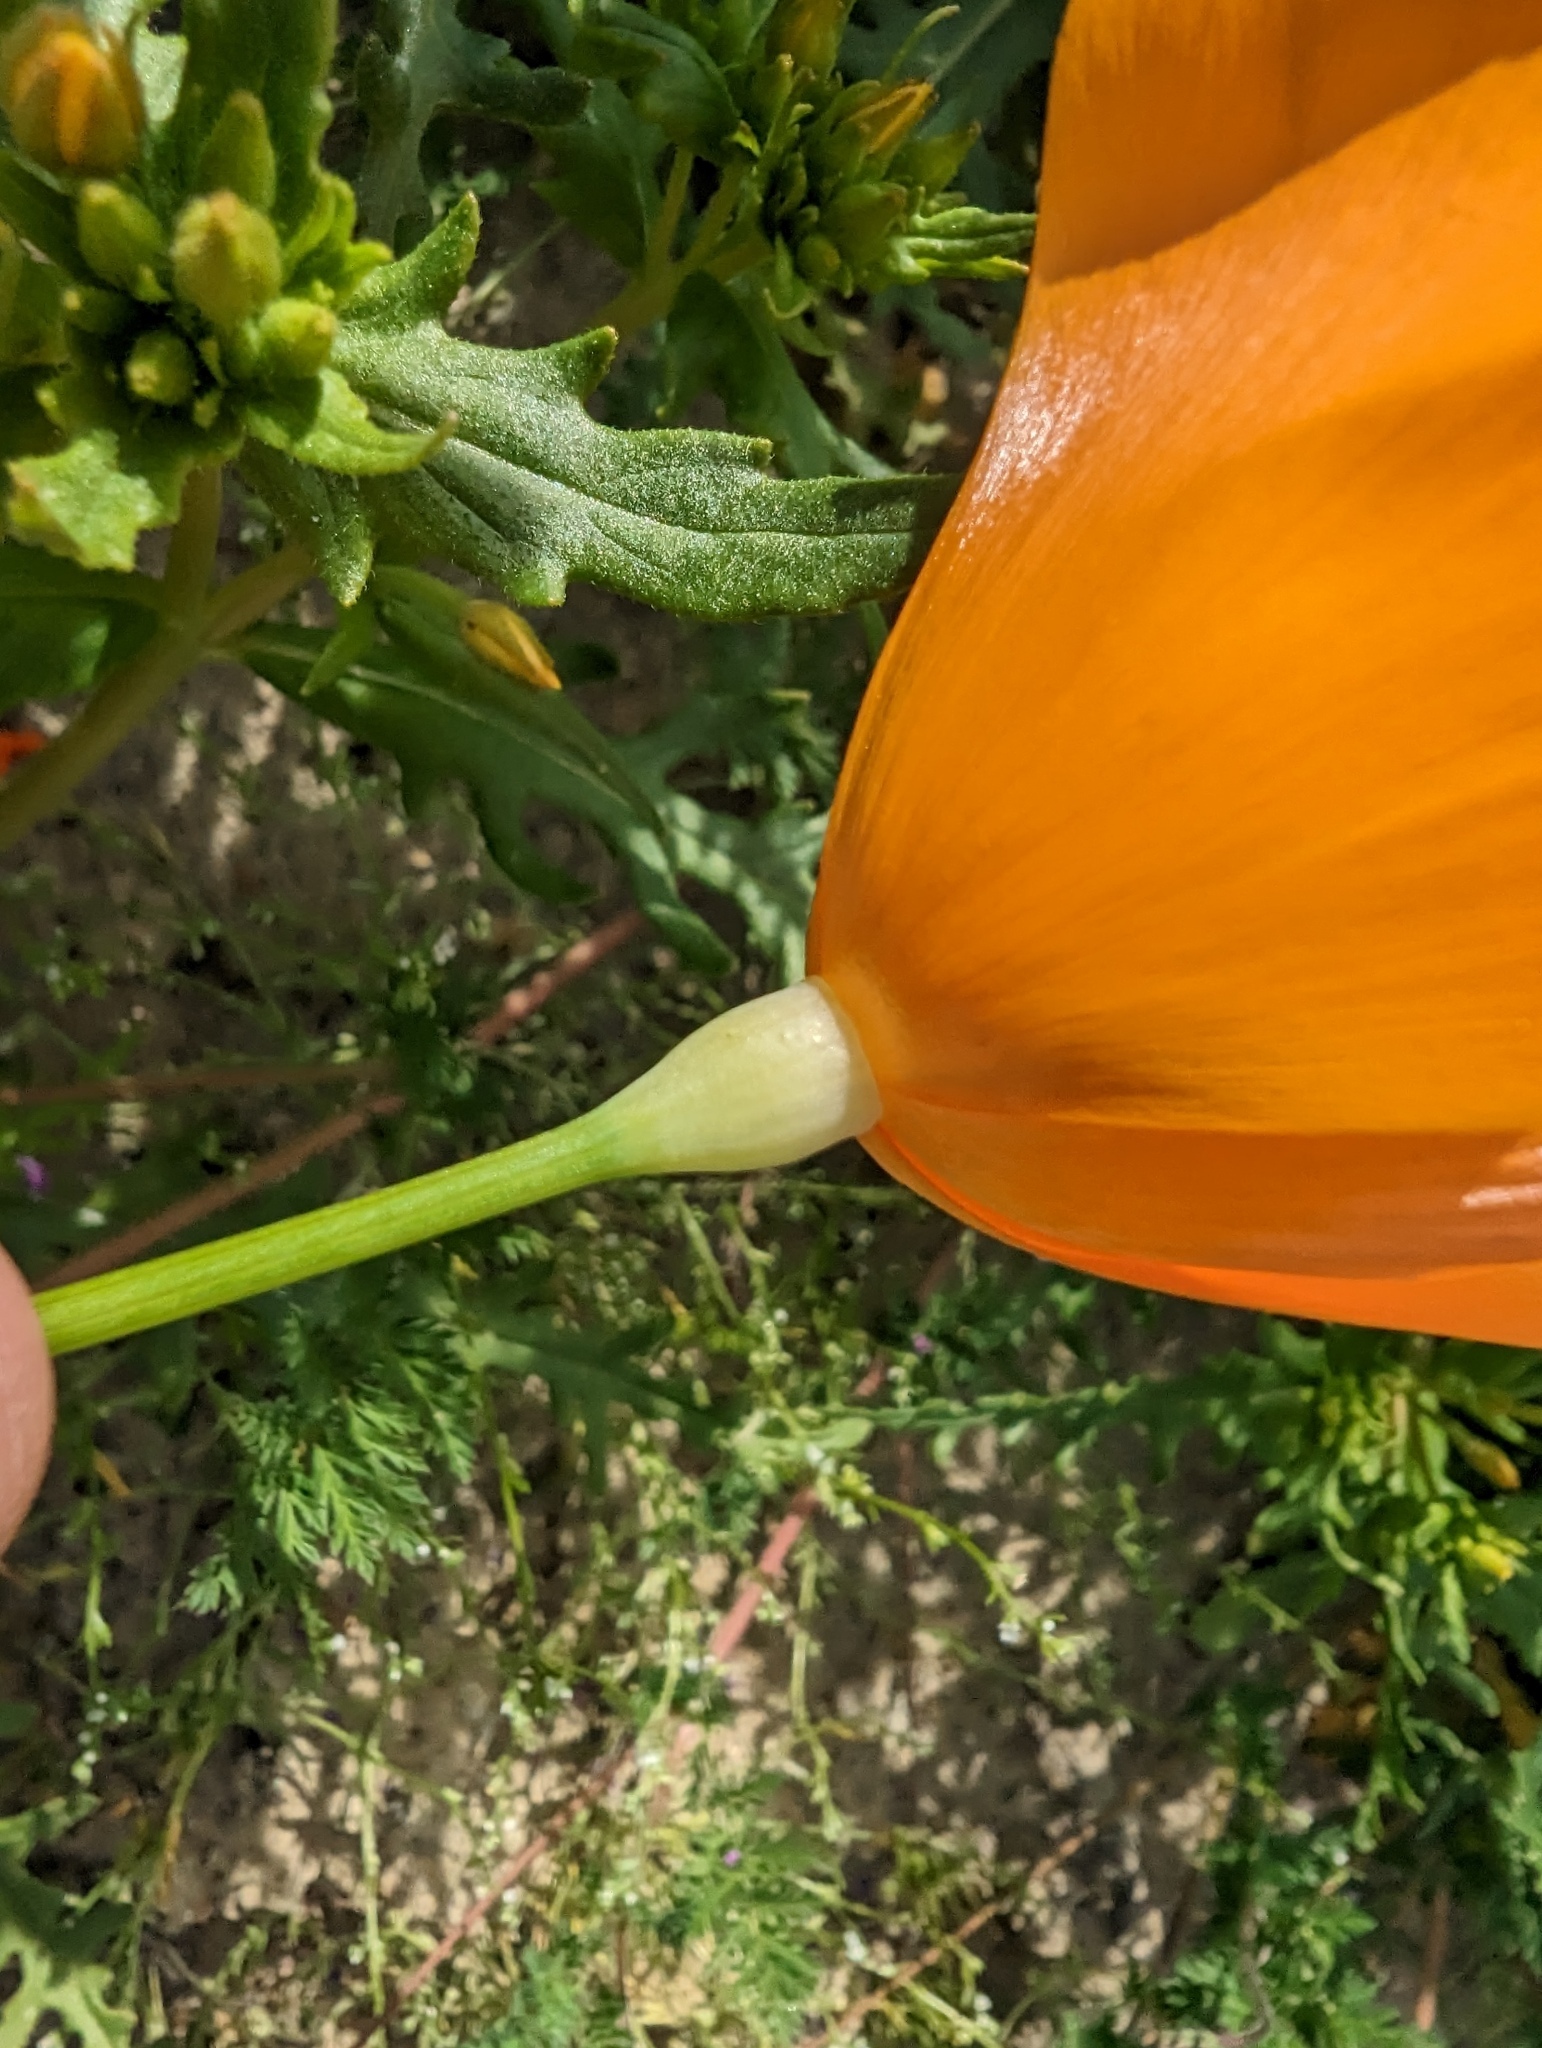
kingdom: Plantae
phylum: Tracheophyta
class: Magnoliopsida
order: Ranunculales
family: Papaveraceae
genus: Eschscholzia
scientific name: Eschscholzia lemmonii
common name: Lemmon's poppy
